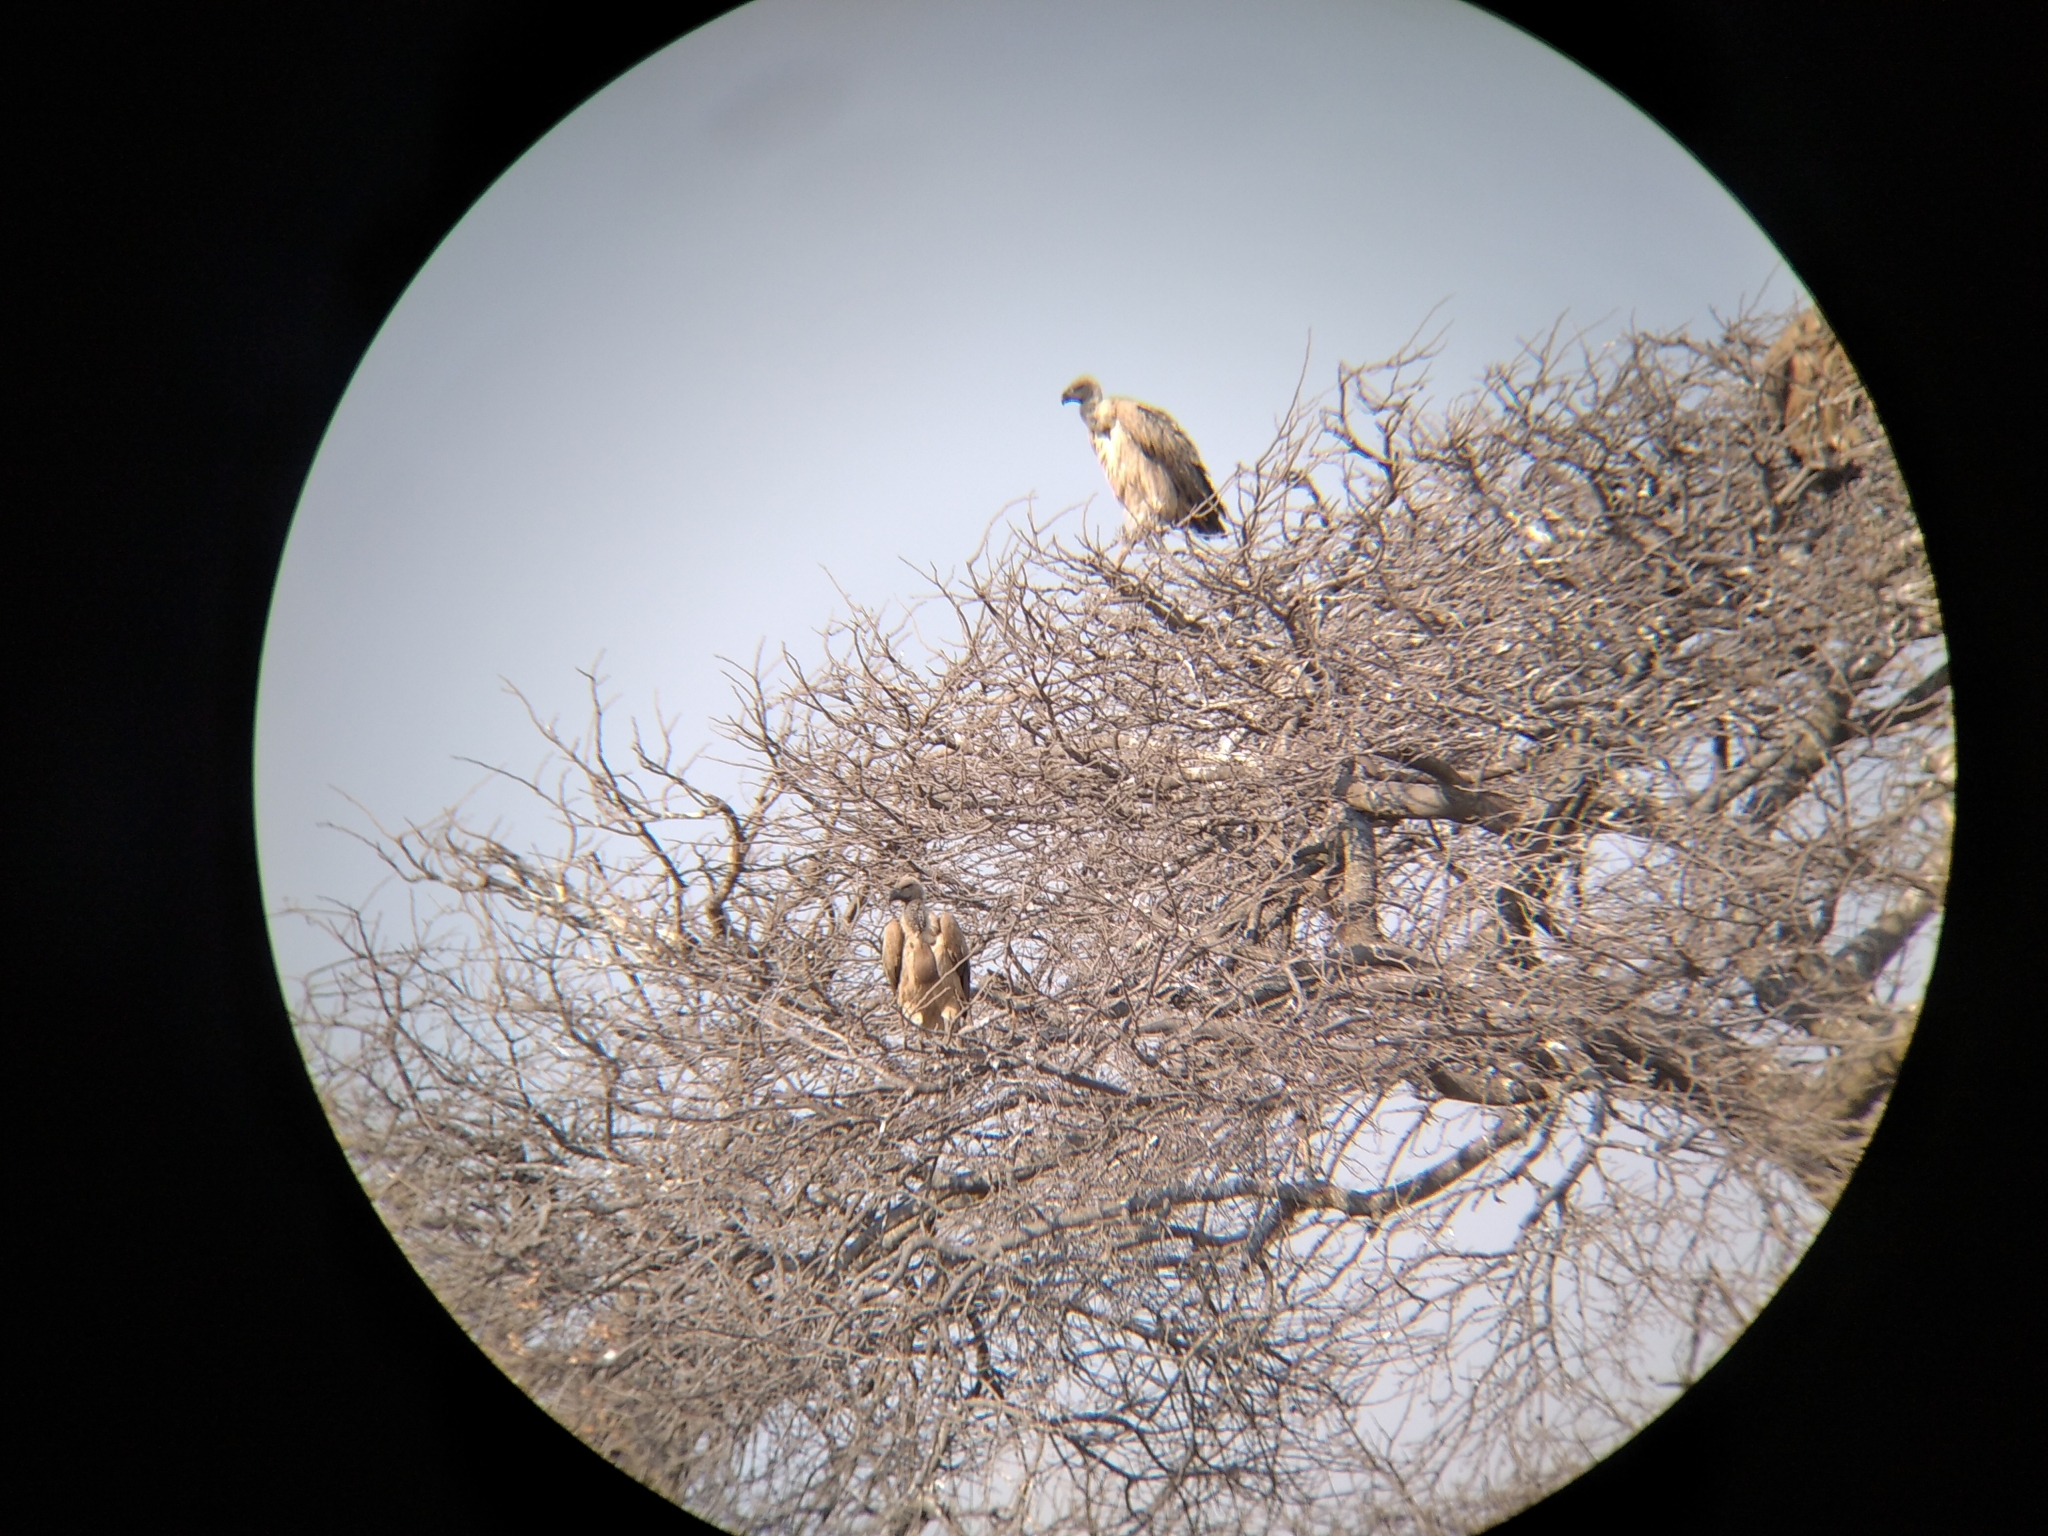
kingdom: Animalia
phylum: Chordata
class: Aves
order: Accipitriformes
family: Accipitridae
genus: Gyps
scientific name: Gyps africanus
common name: White-backed vulture
